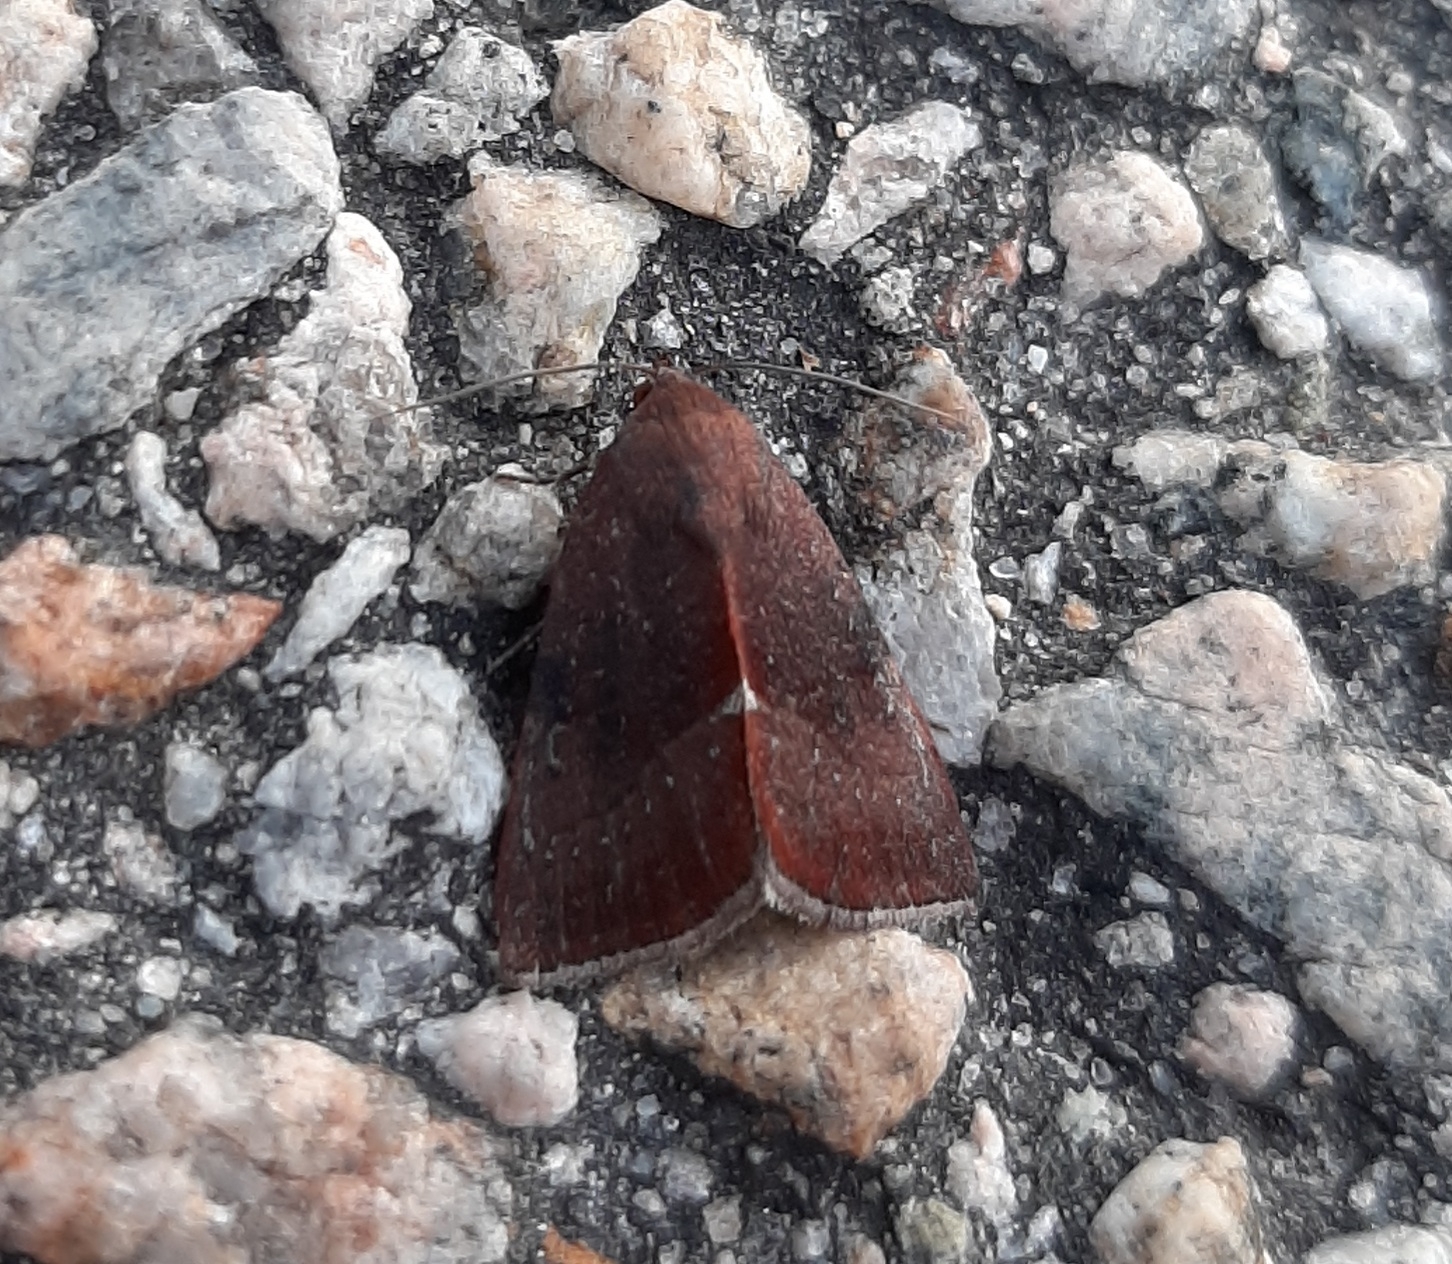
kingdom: Animalia
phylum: Arthropoda
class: Insecta
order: Lepidoptera
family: Noctuidae
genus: Galgula
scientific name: Galgula partita
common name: Wedgeling
